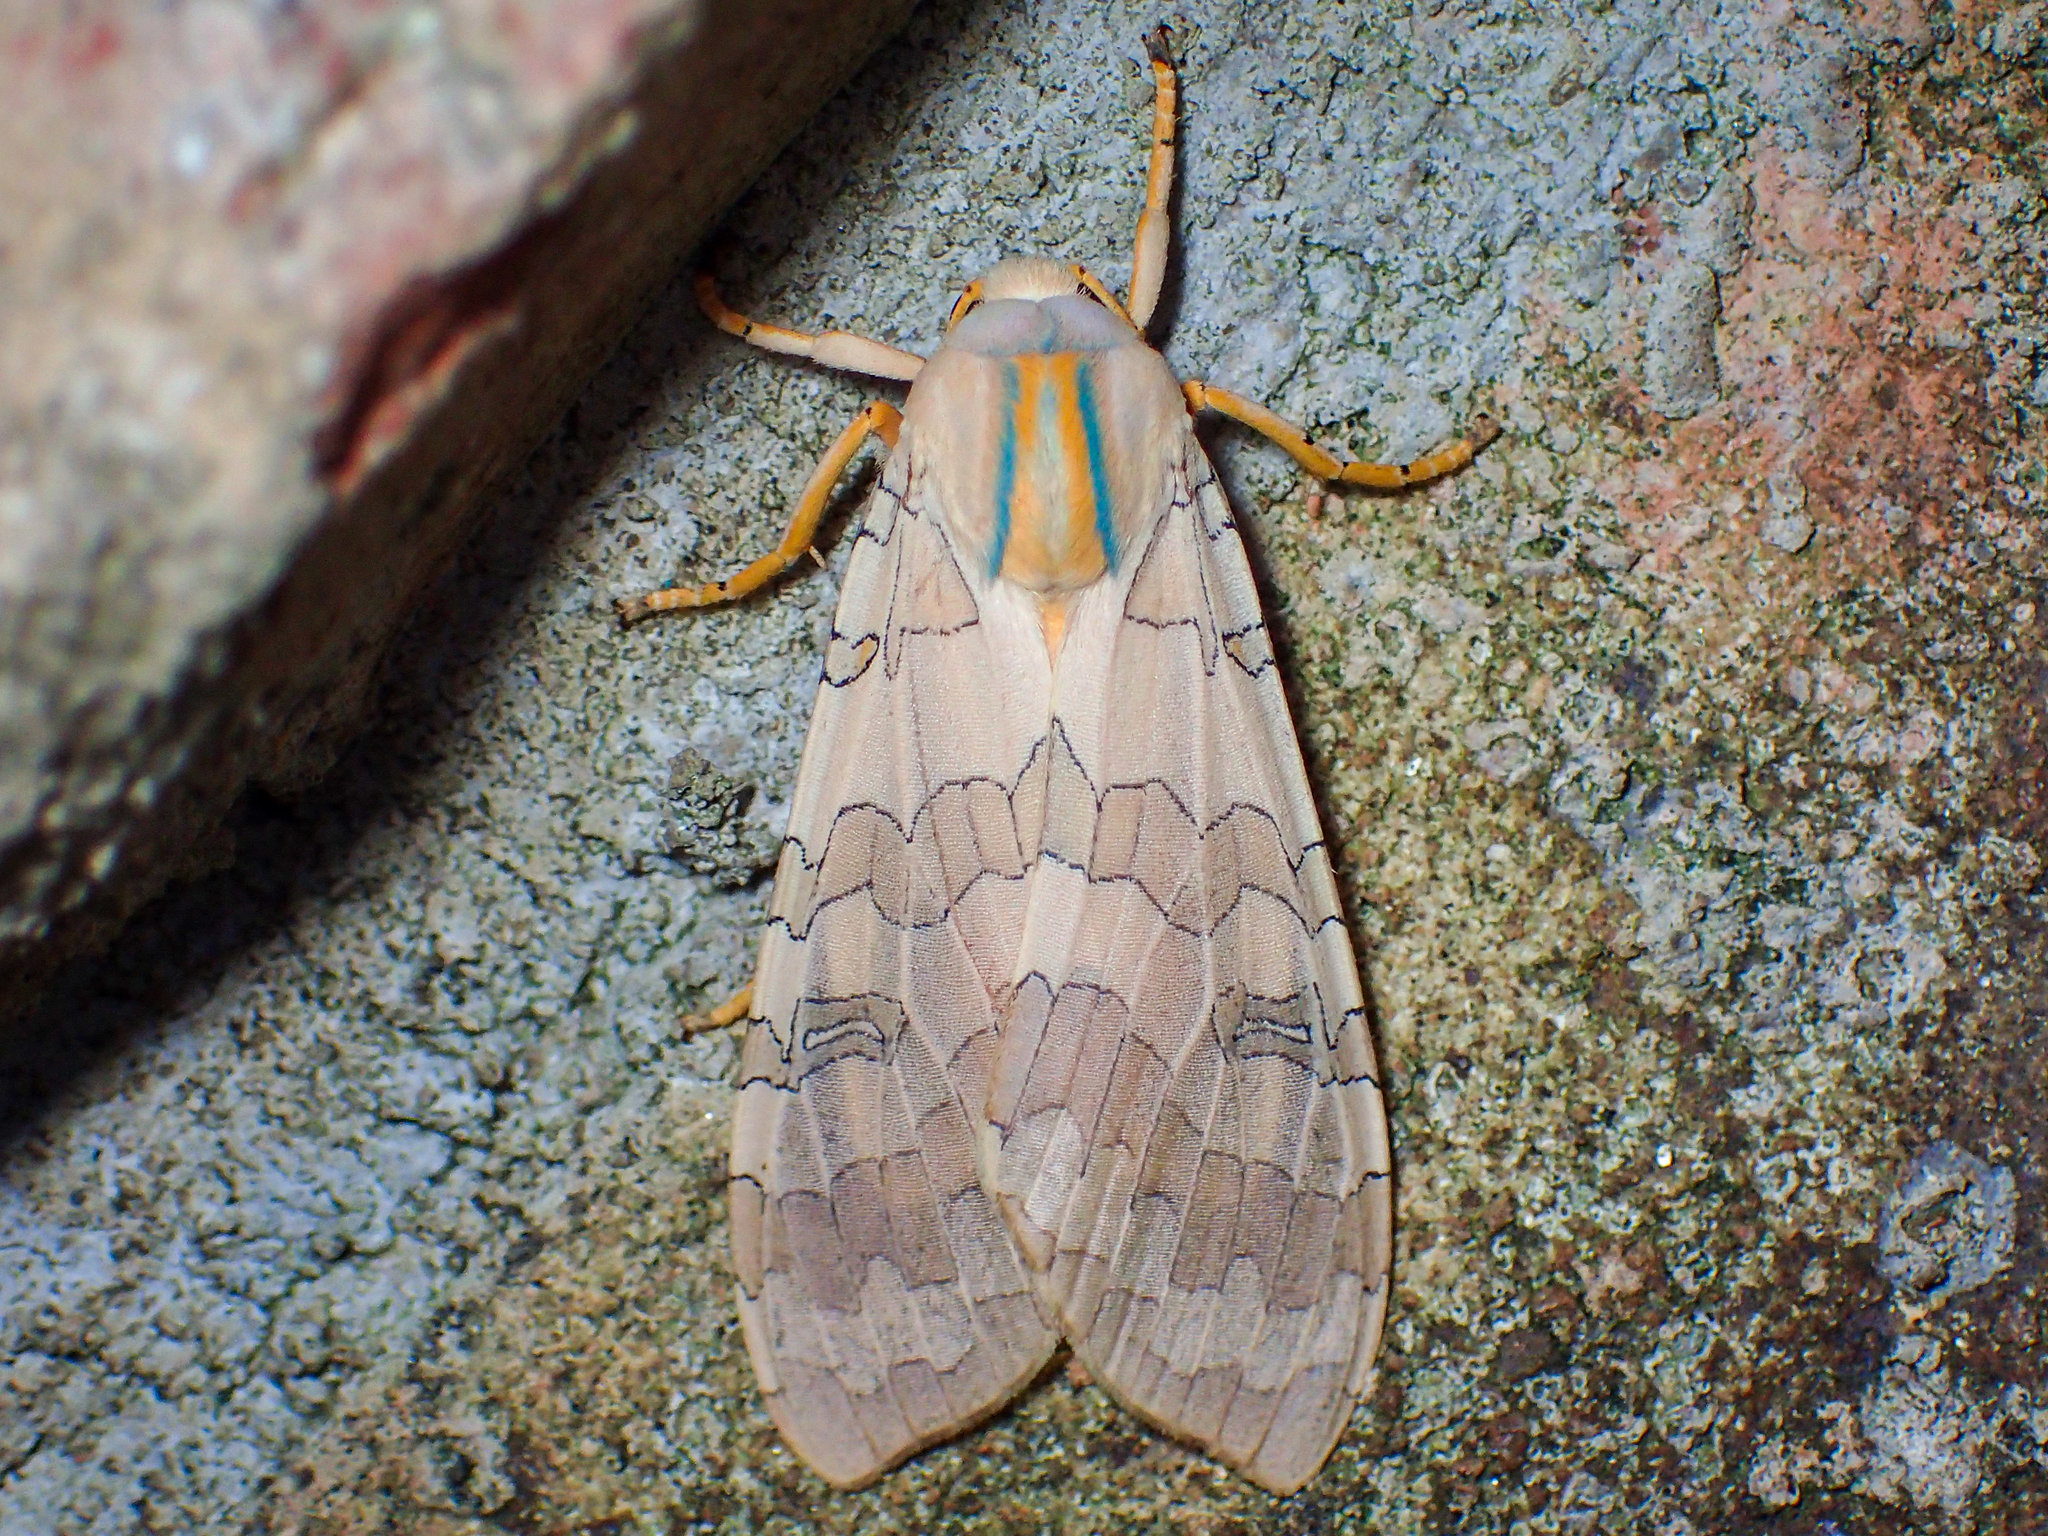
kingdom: Animalia
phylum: Arthropoda
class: Insecta
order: Lepidoptera
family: Erebidae
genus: Halysidota
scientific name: Halysidota
